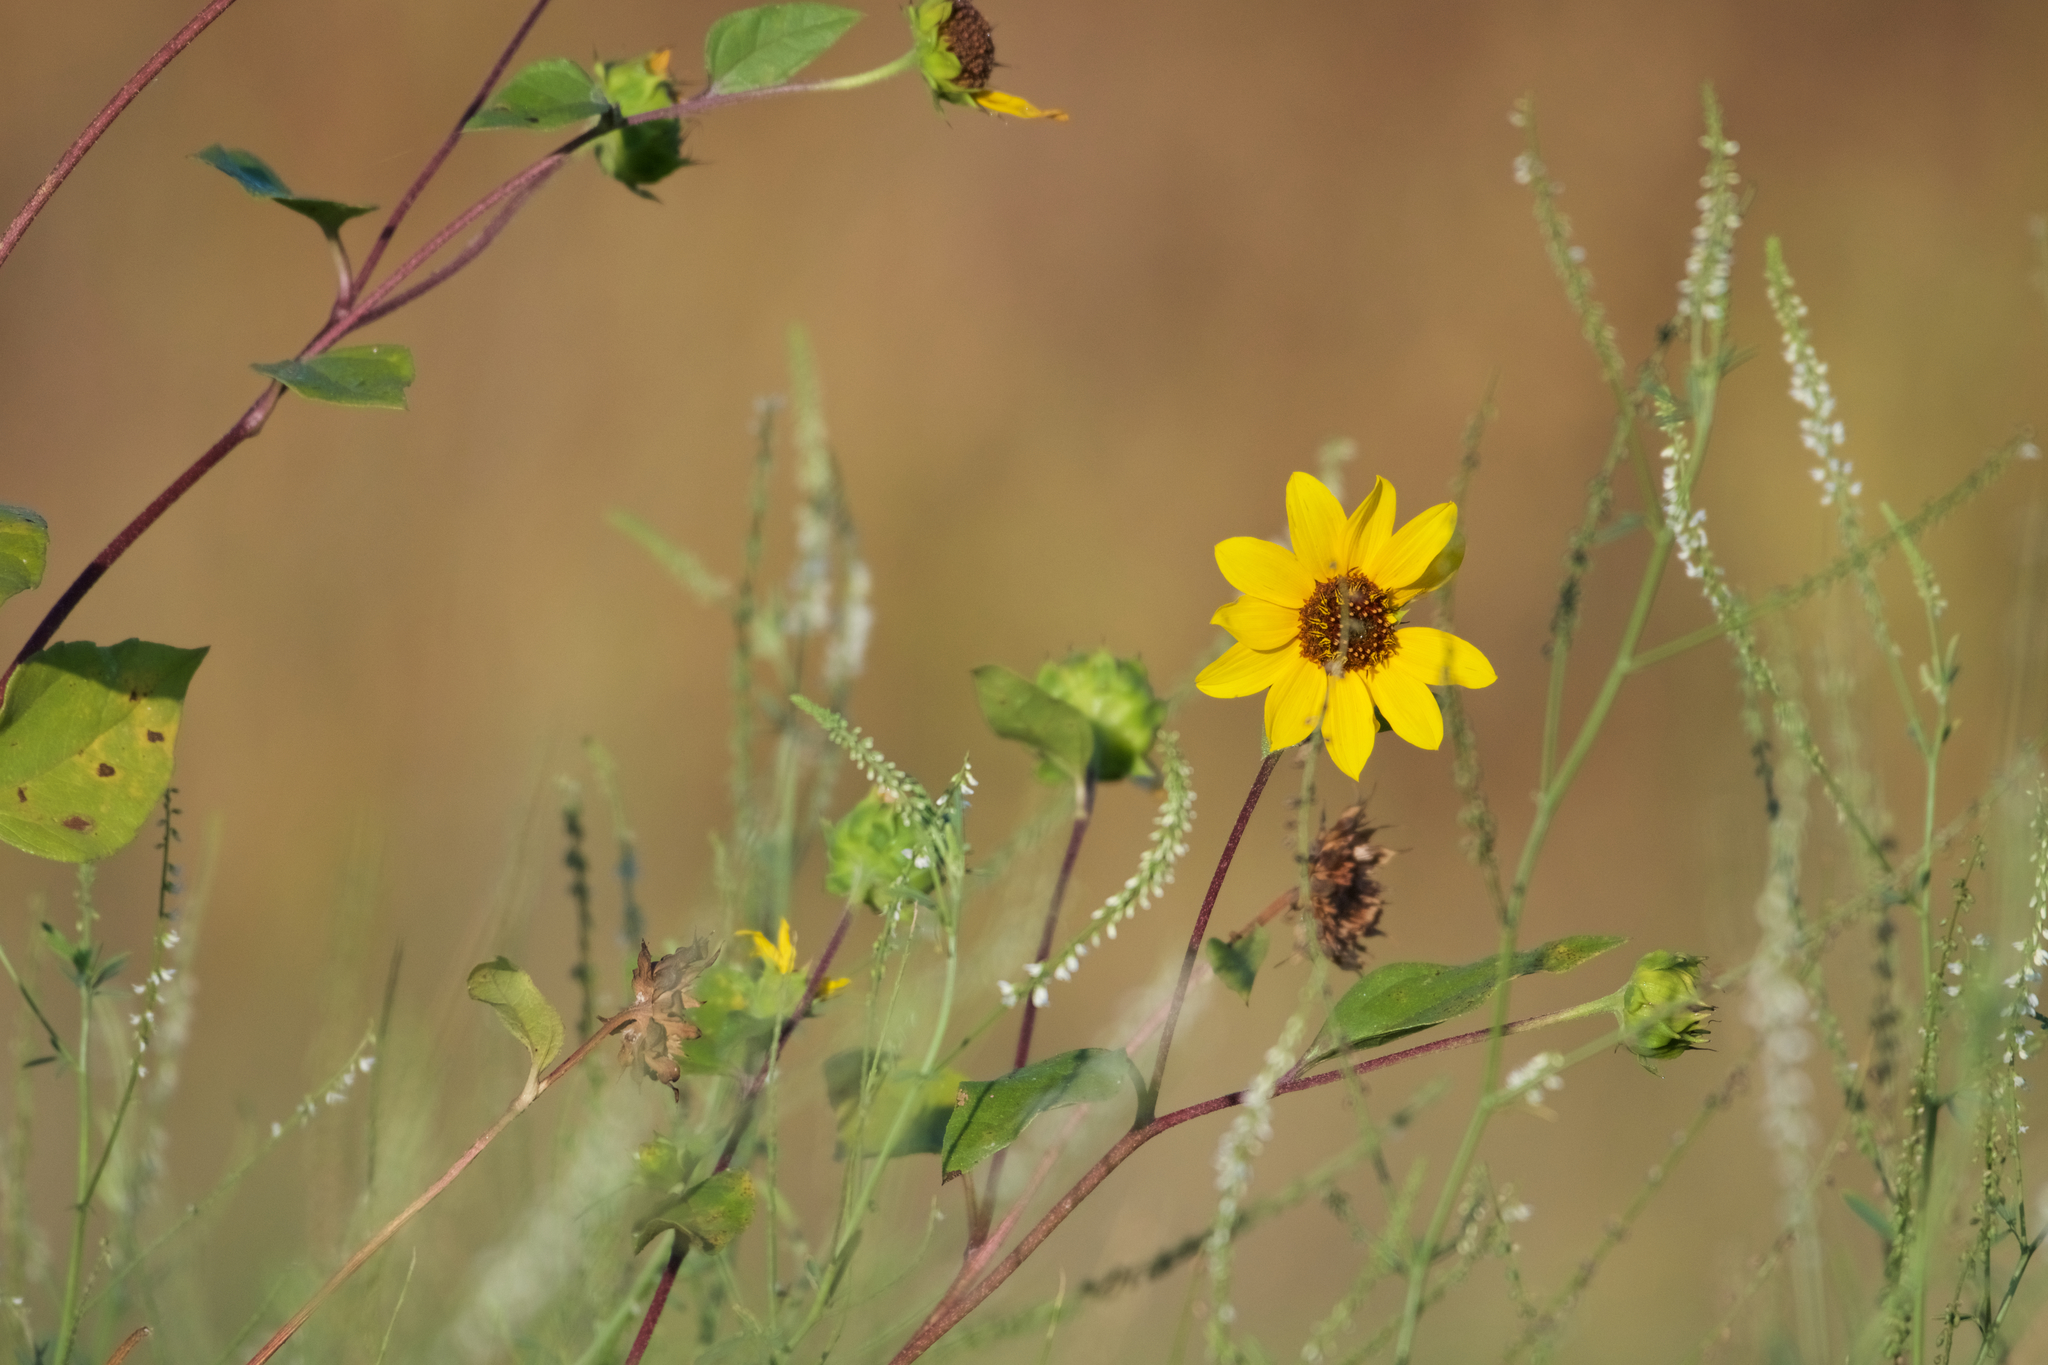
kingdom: Plantae
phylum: Tracheophyta
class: Magnoliopsida
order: Asterales
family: Asteraceae
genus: Helianthus
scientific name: Helianthus petiolaris
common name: Lesser sunflower
